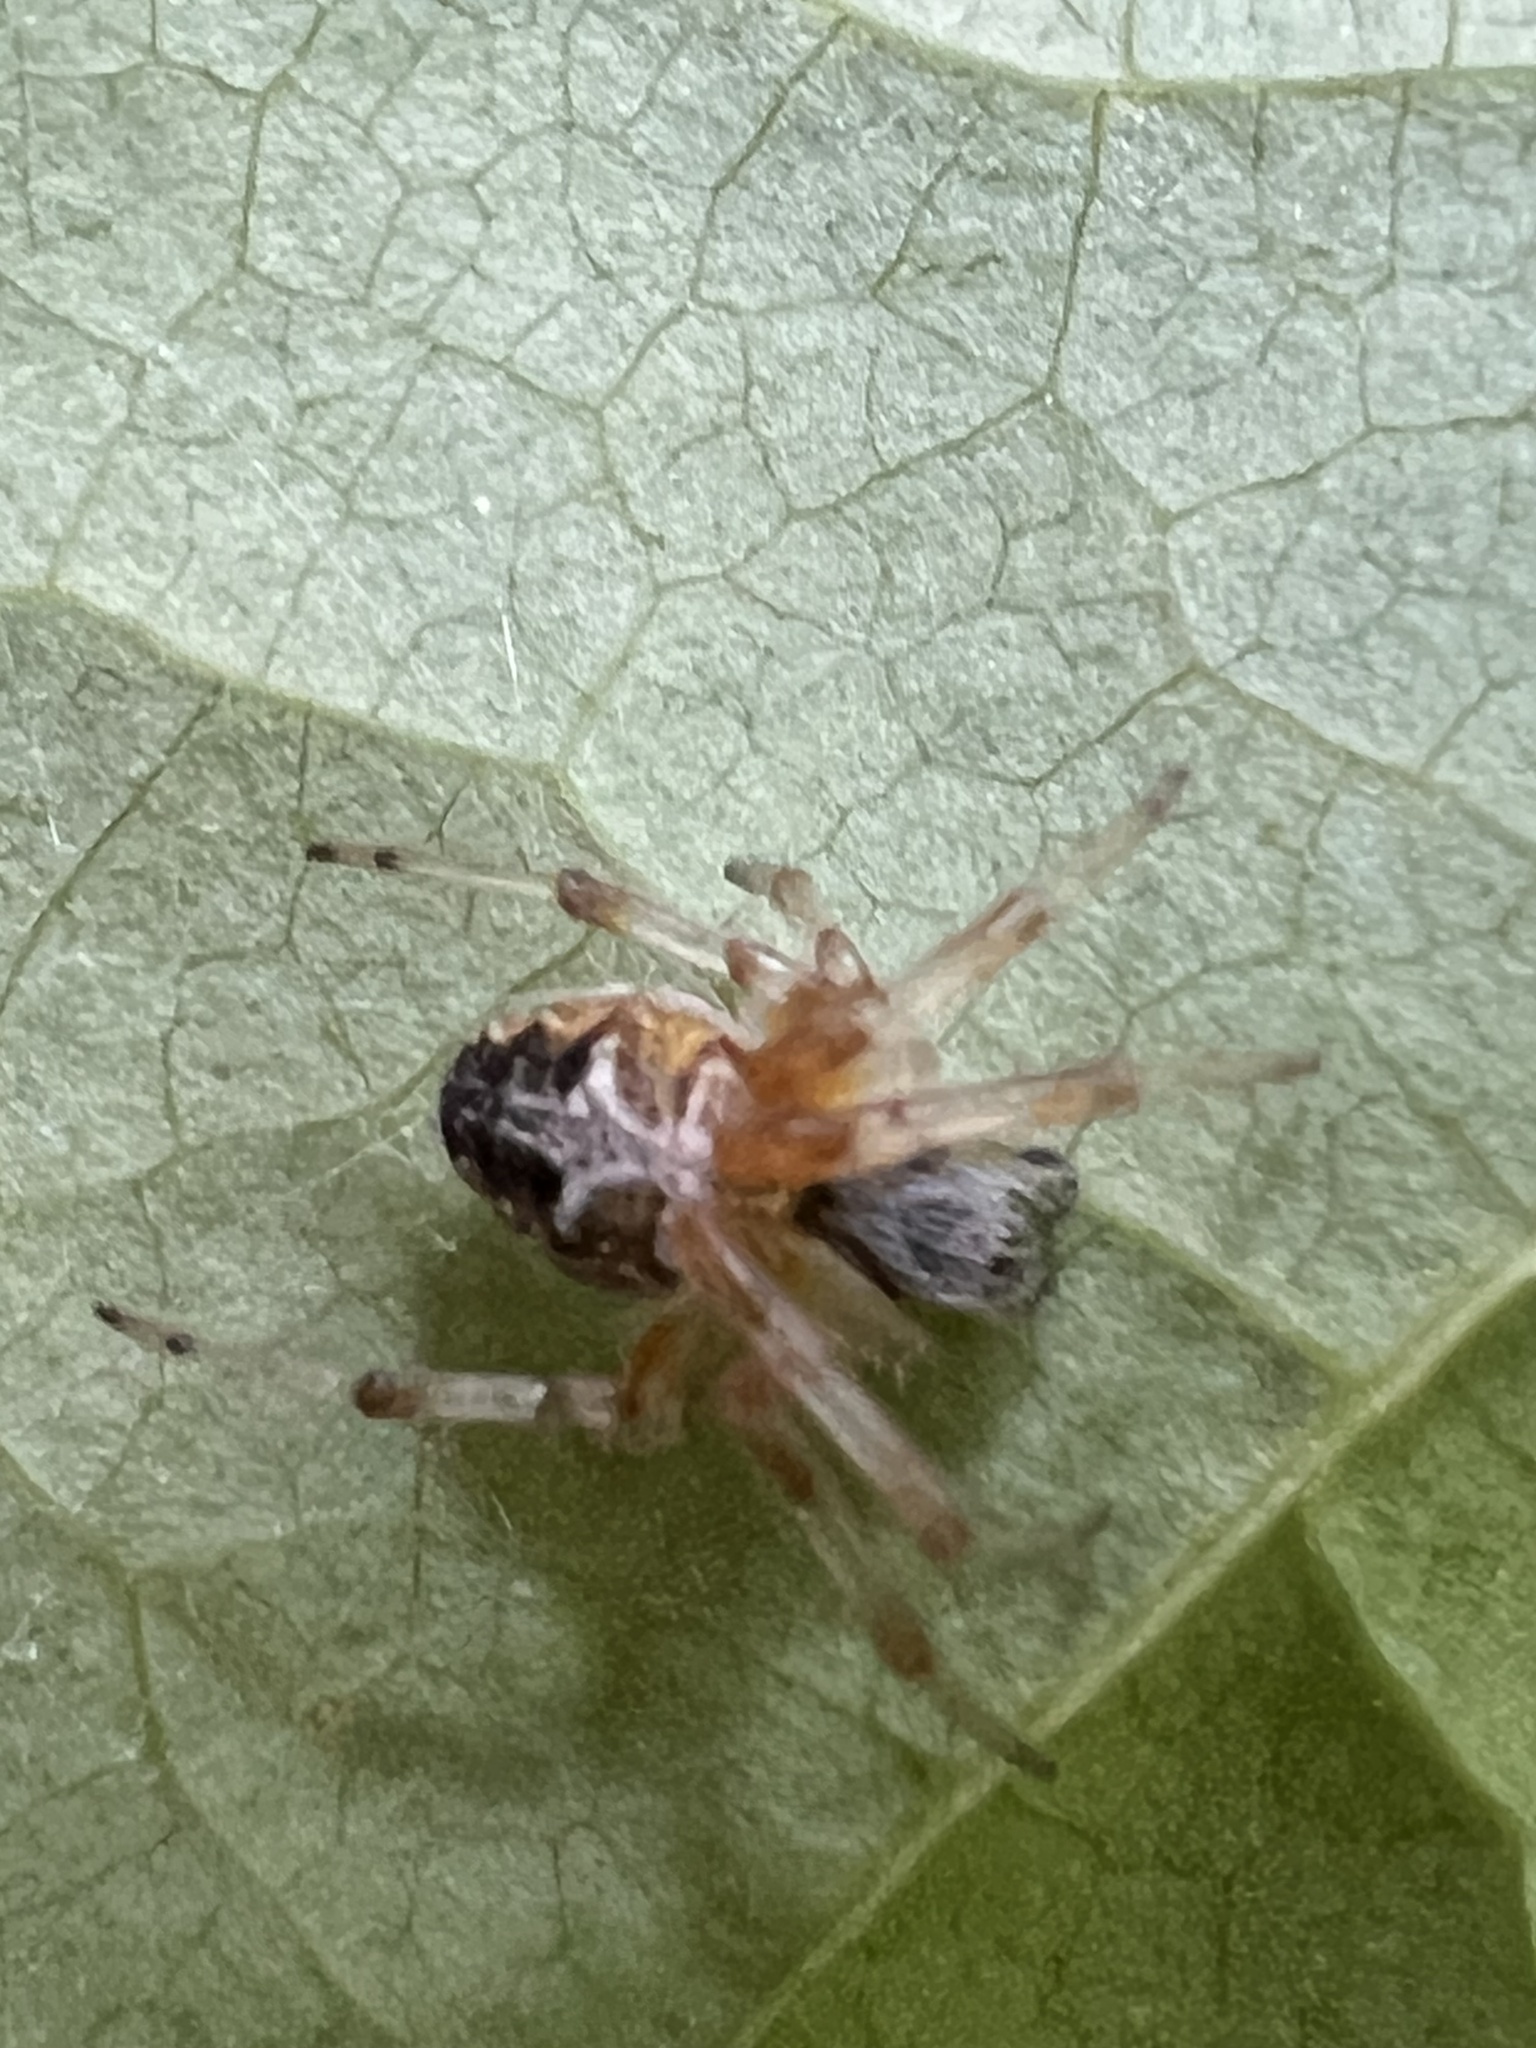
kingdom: Animalia
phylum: Arthropoda
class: Arachnida
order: Araneae
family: Araneidae
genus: Metepeira
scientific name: Metepeira labyrinthea
